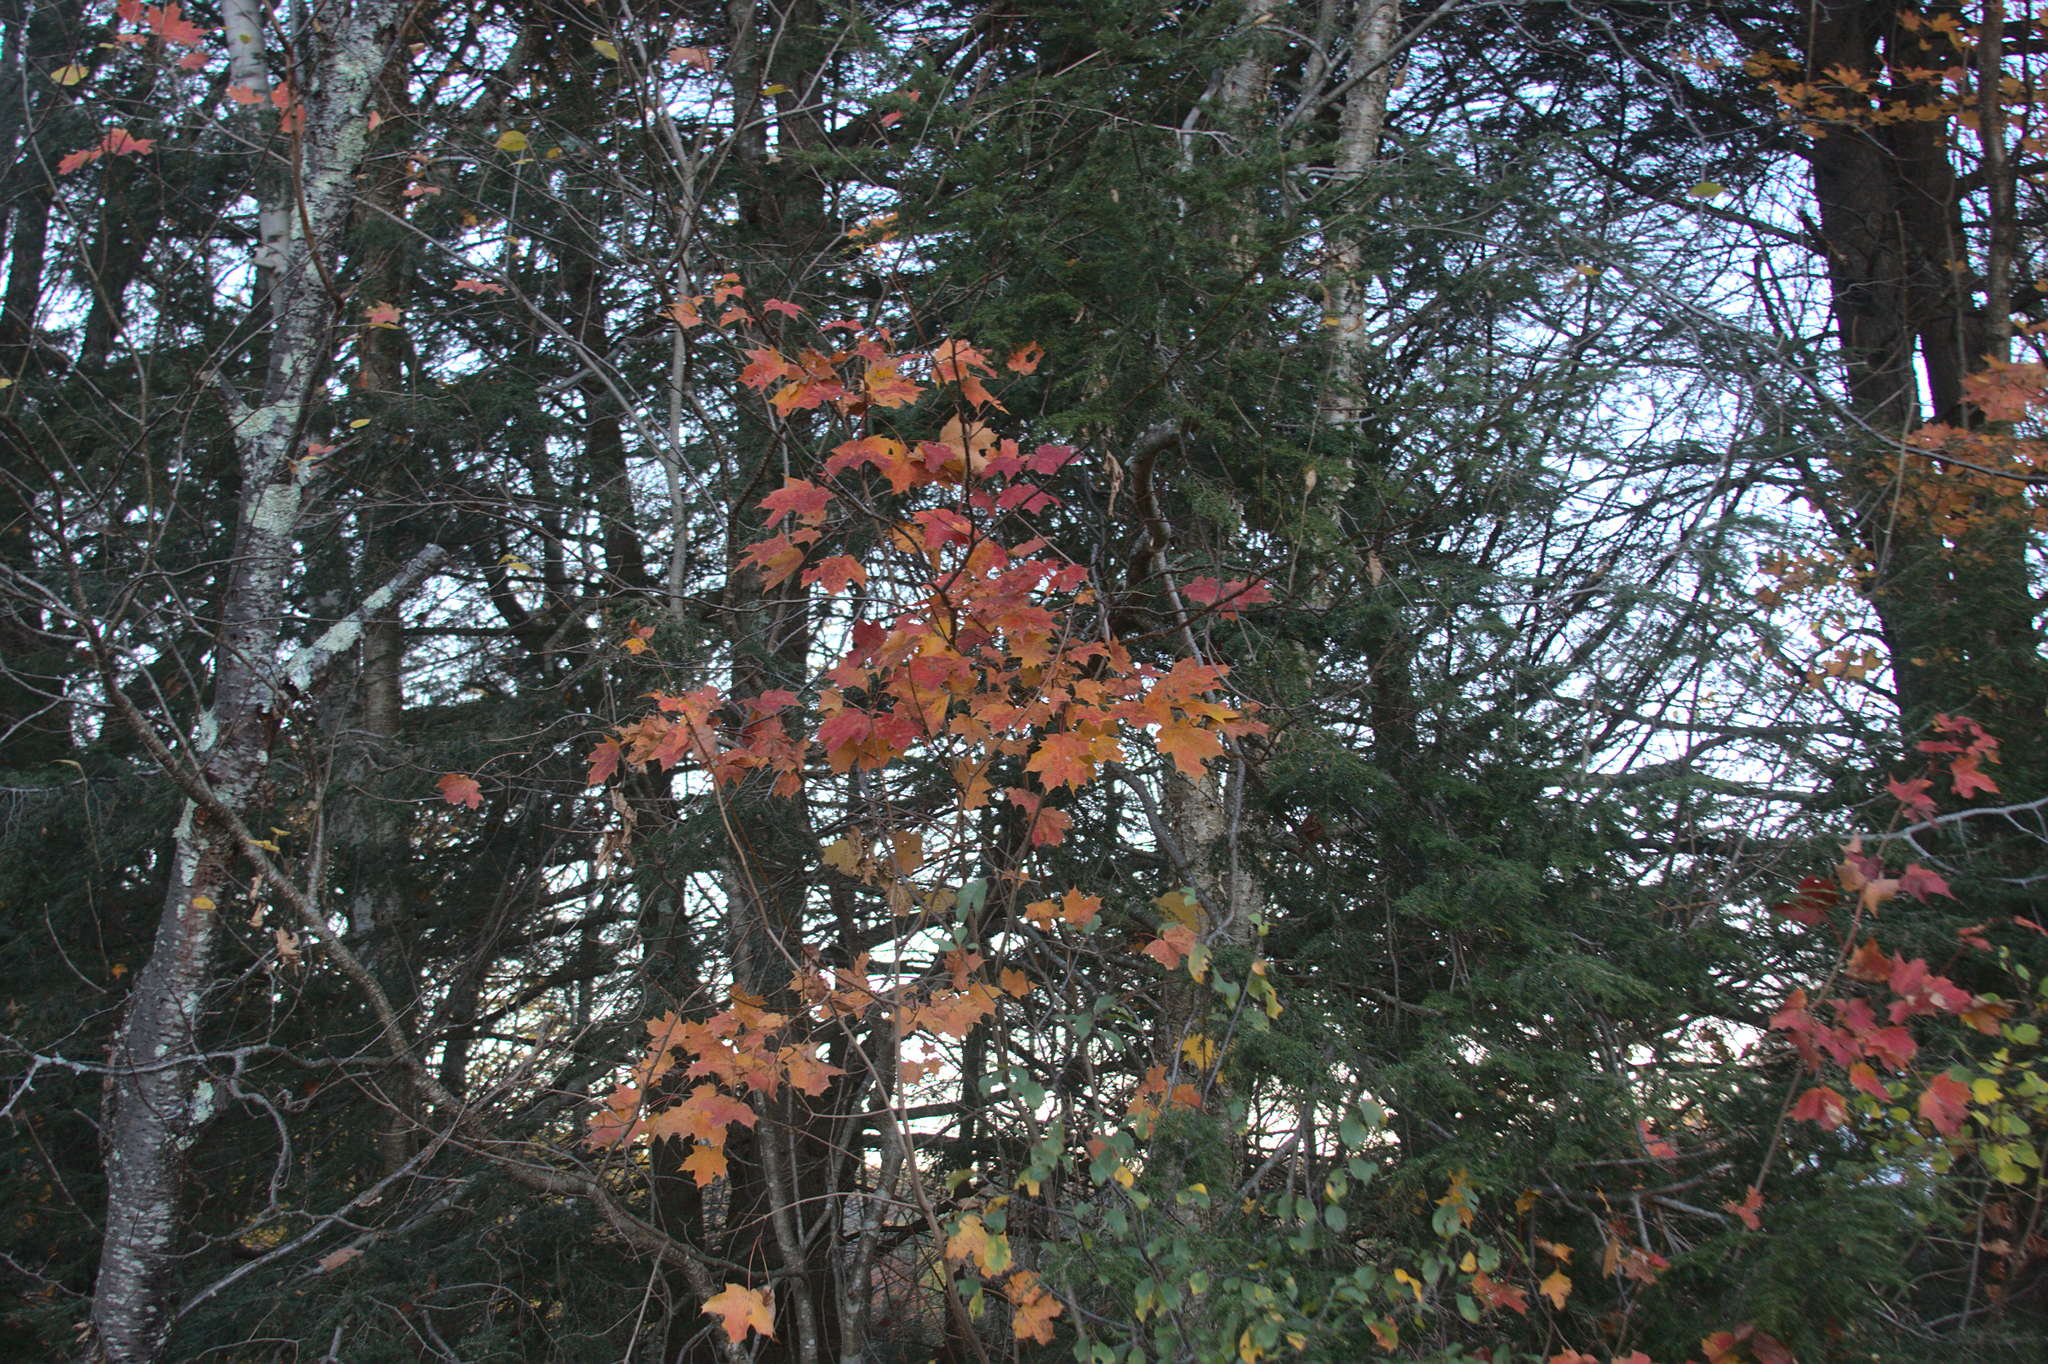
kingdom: Plantae
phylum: Tracheophyta
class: Magnoliopsida
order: Sapindales
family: Sapindaceae
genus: Acer
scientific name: Acer saccharum
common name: Sugar maple
